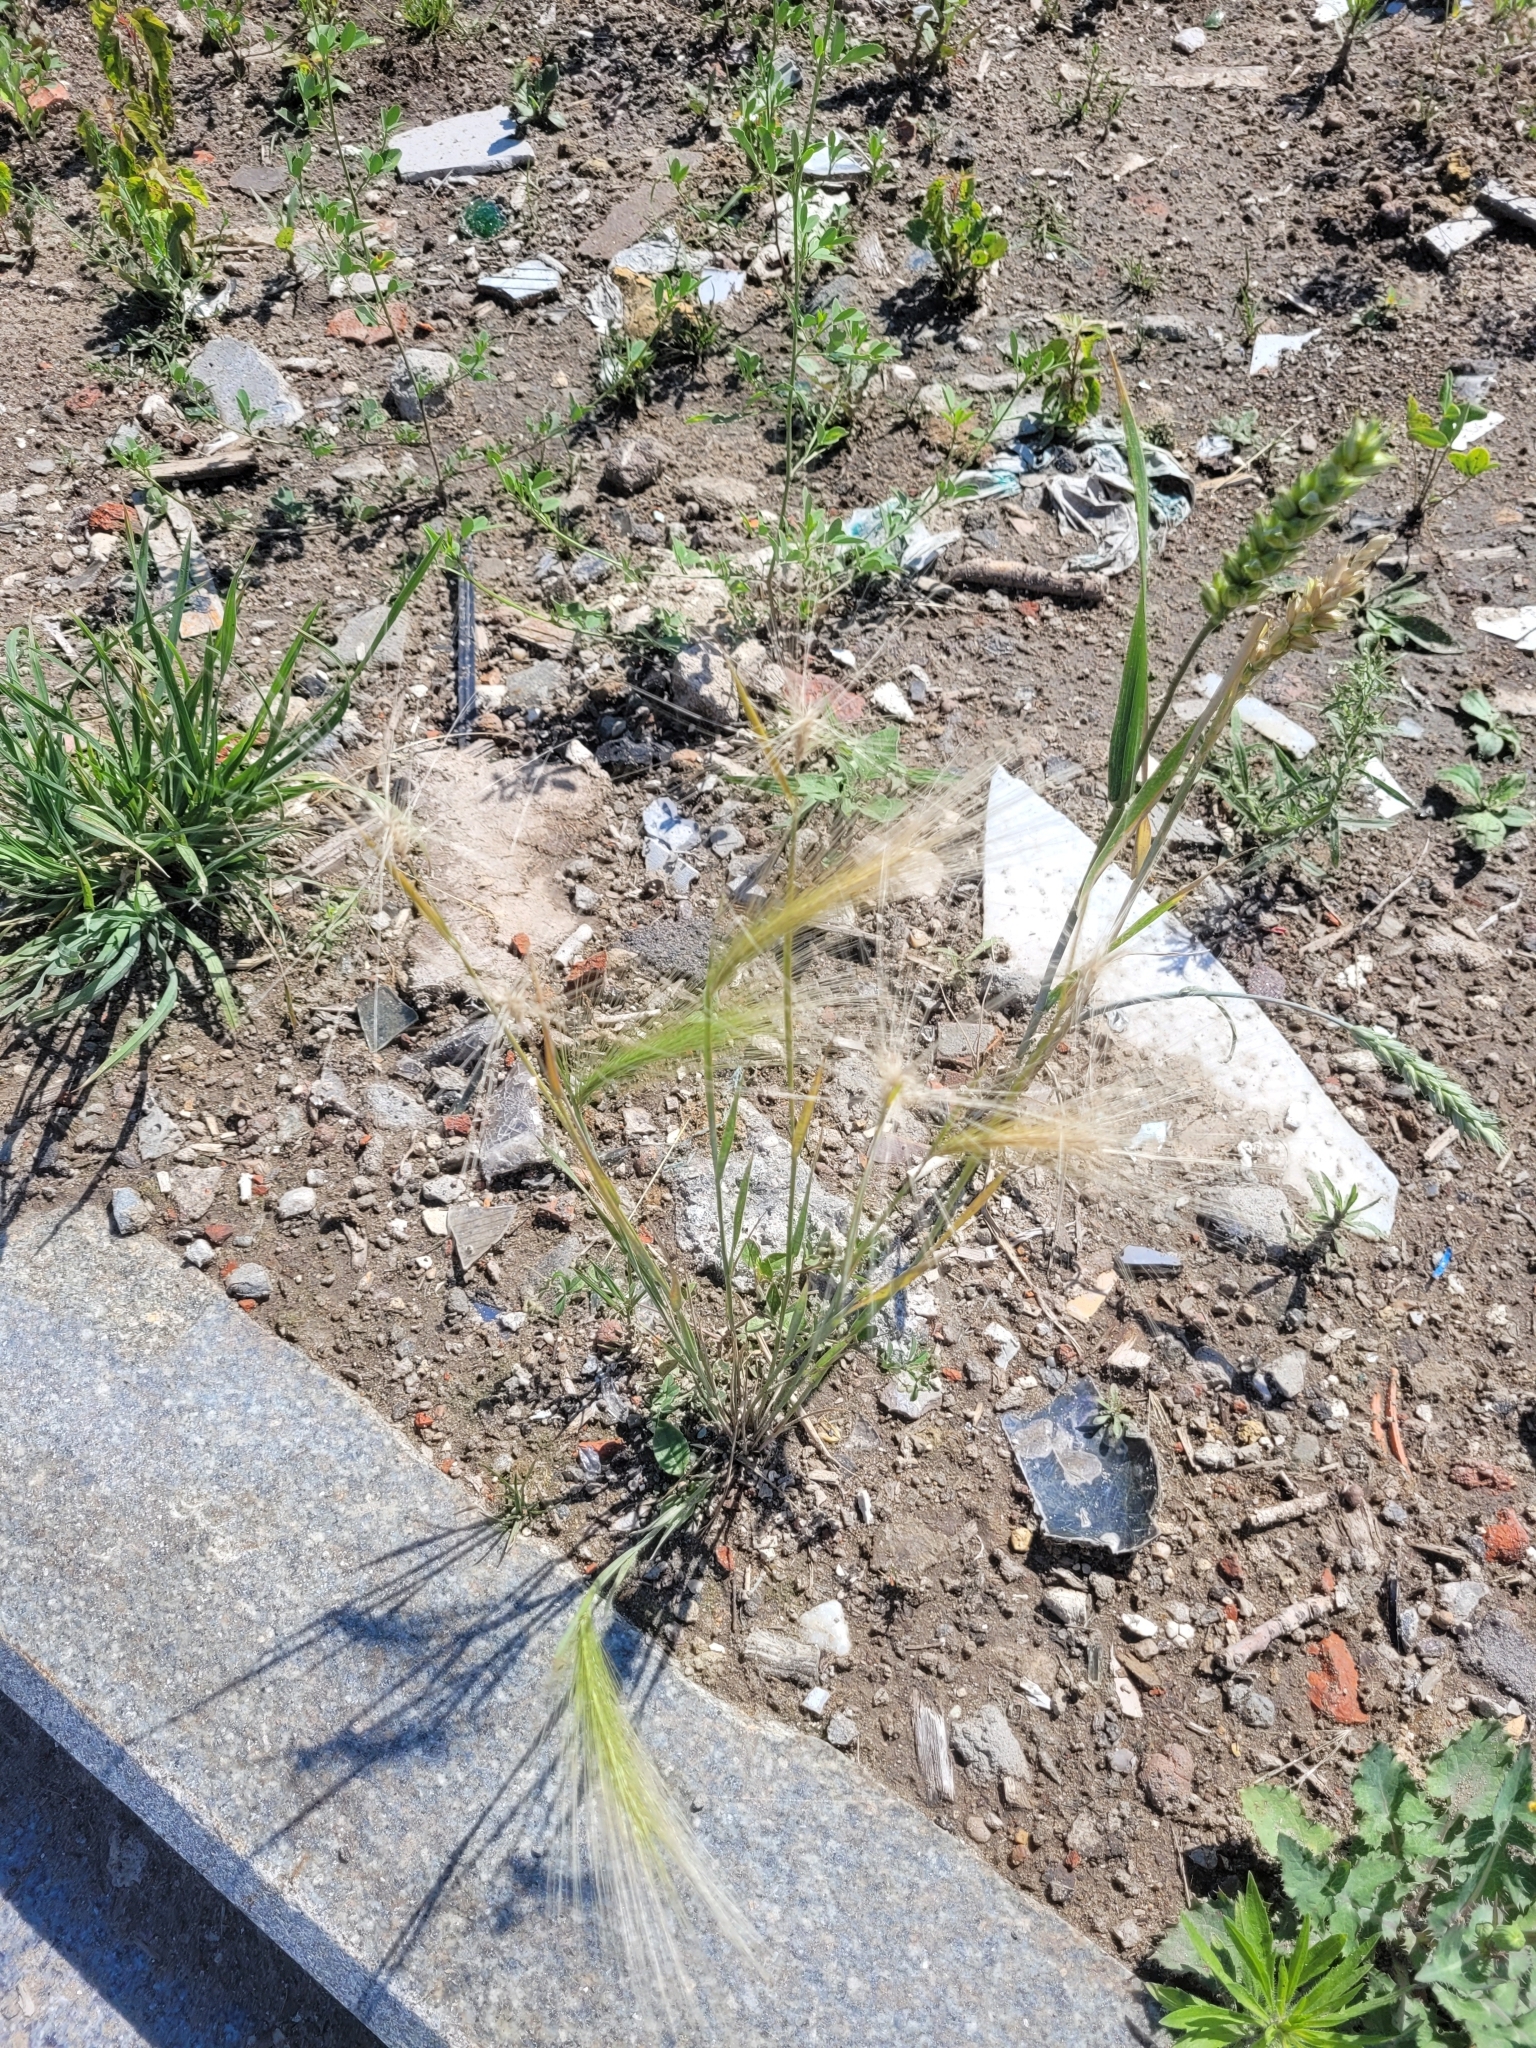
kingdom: Plantae
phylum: Tracheophyta
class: Liliopsida
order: Poales
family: Poaceae
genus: Hordeum
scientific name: Hordeum jubatum
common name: Foxtail barley
